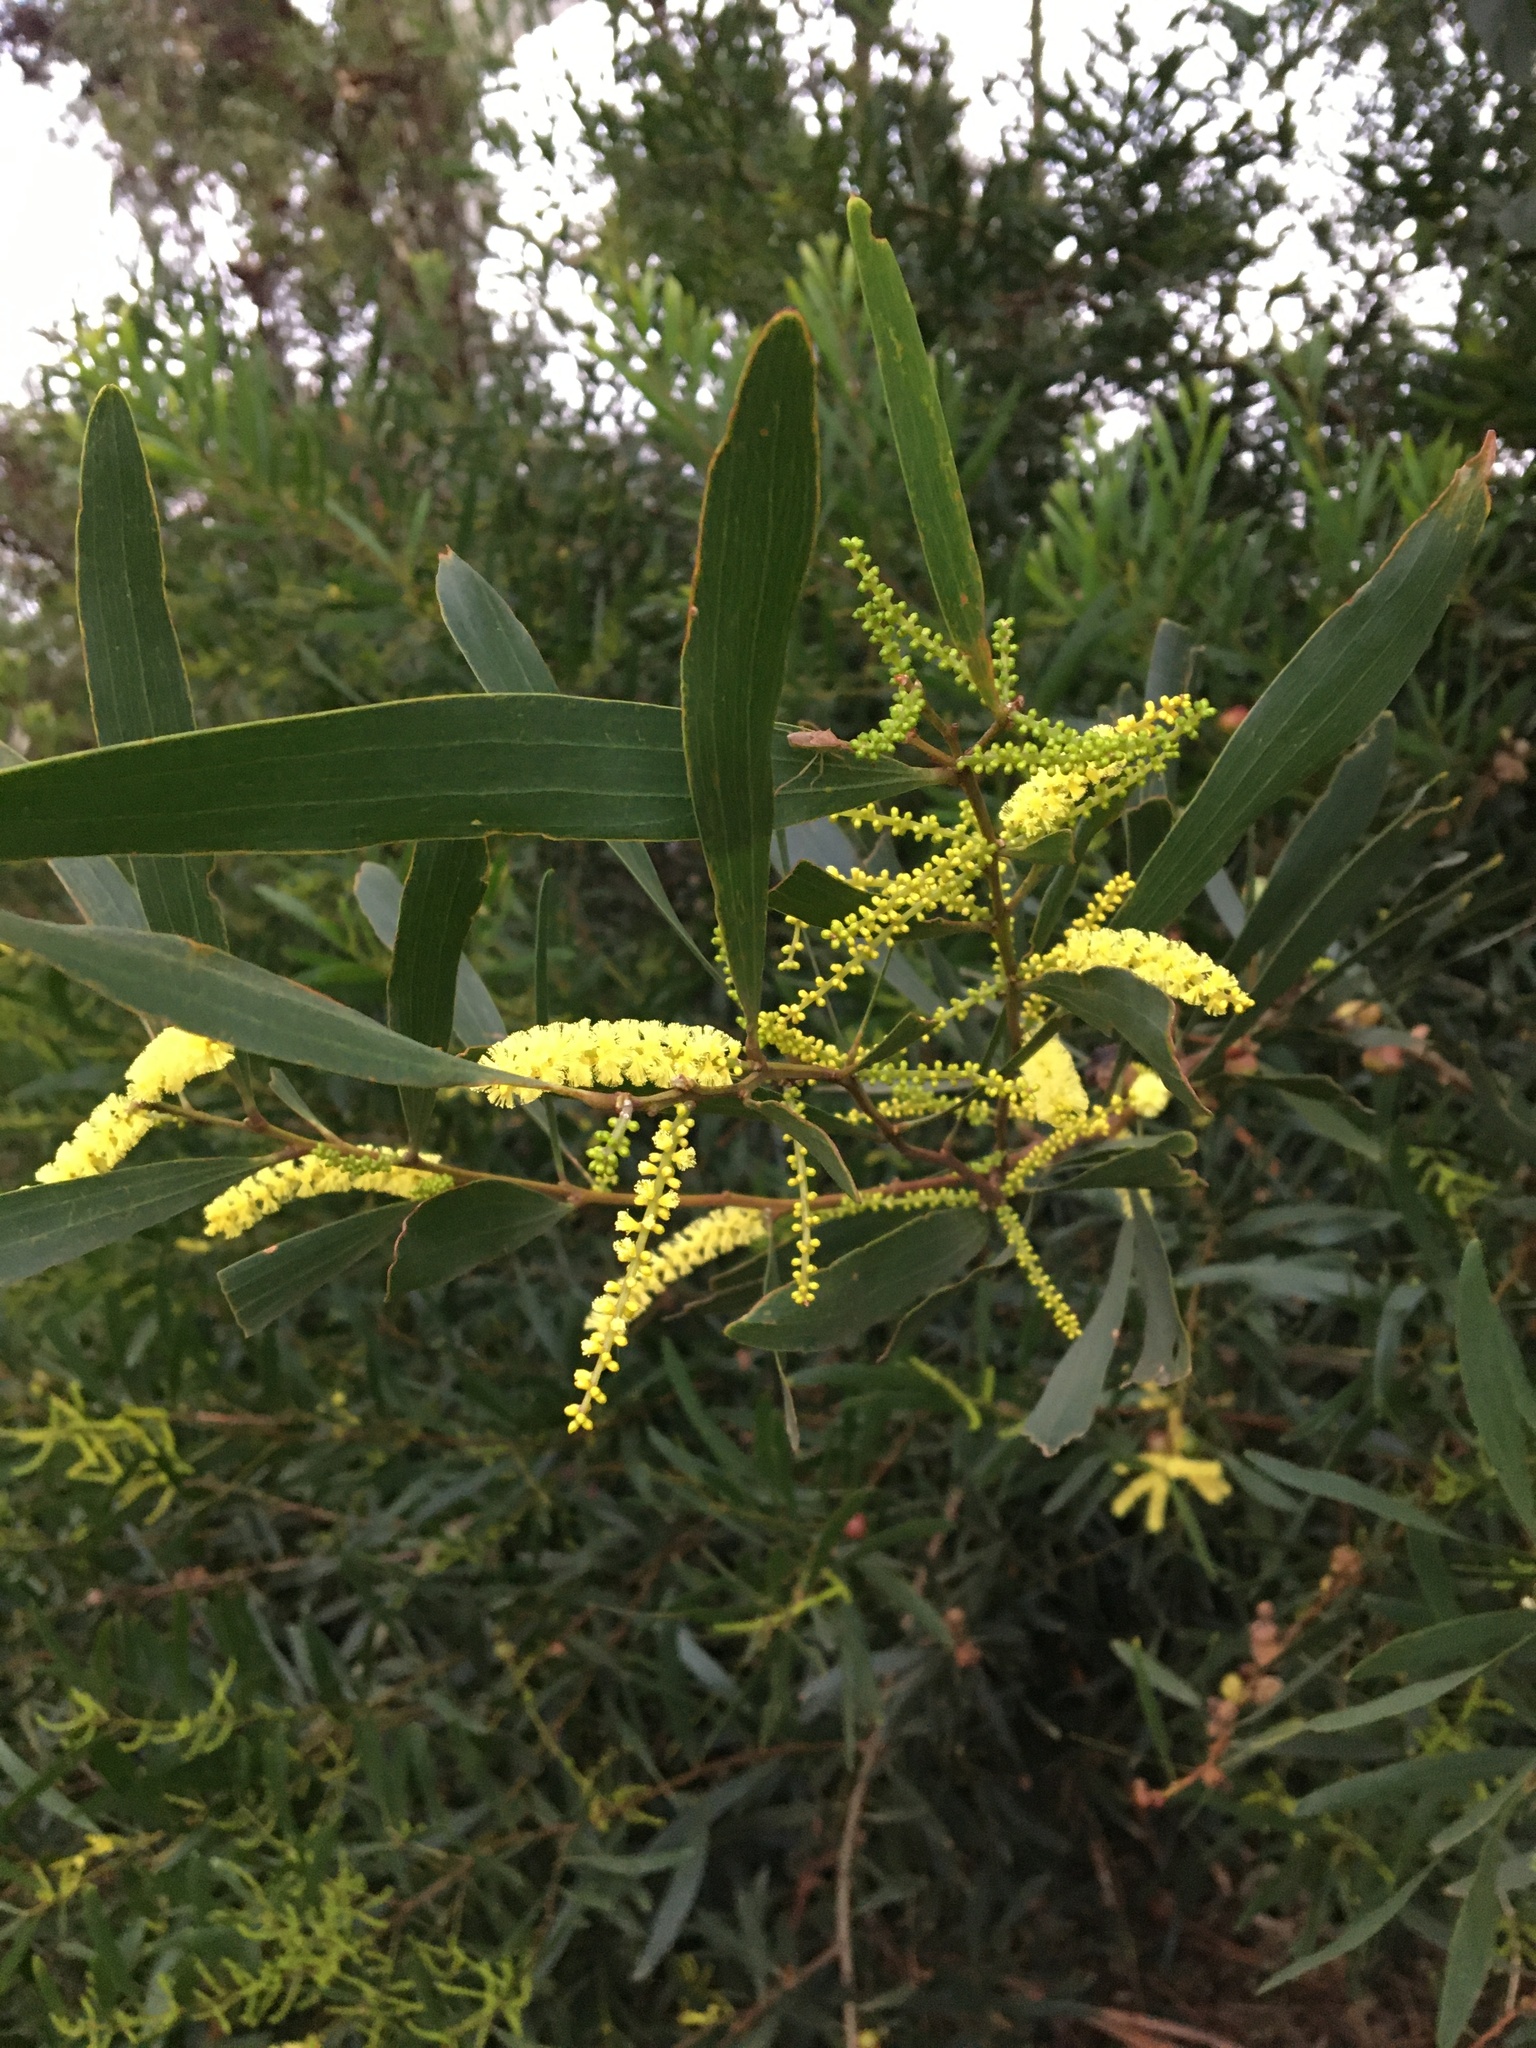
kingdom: Plantae
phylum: Tracheophyta
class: Magnoliopsida
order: Fabales
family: Fabaceae
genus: Acacia
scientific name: Acacia longifolia
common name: Sydney golden wattle
